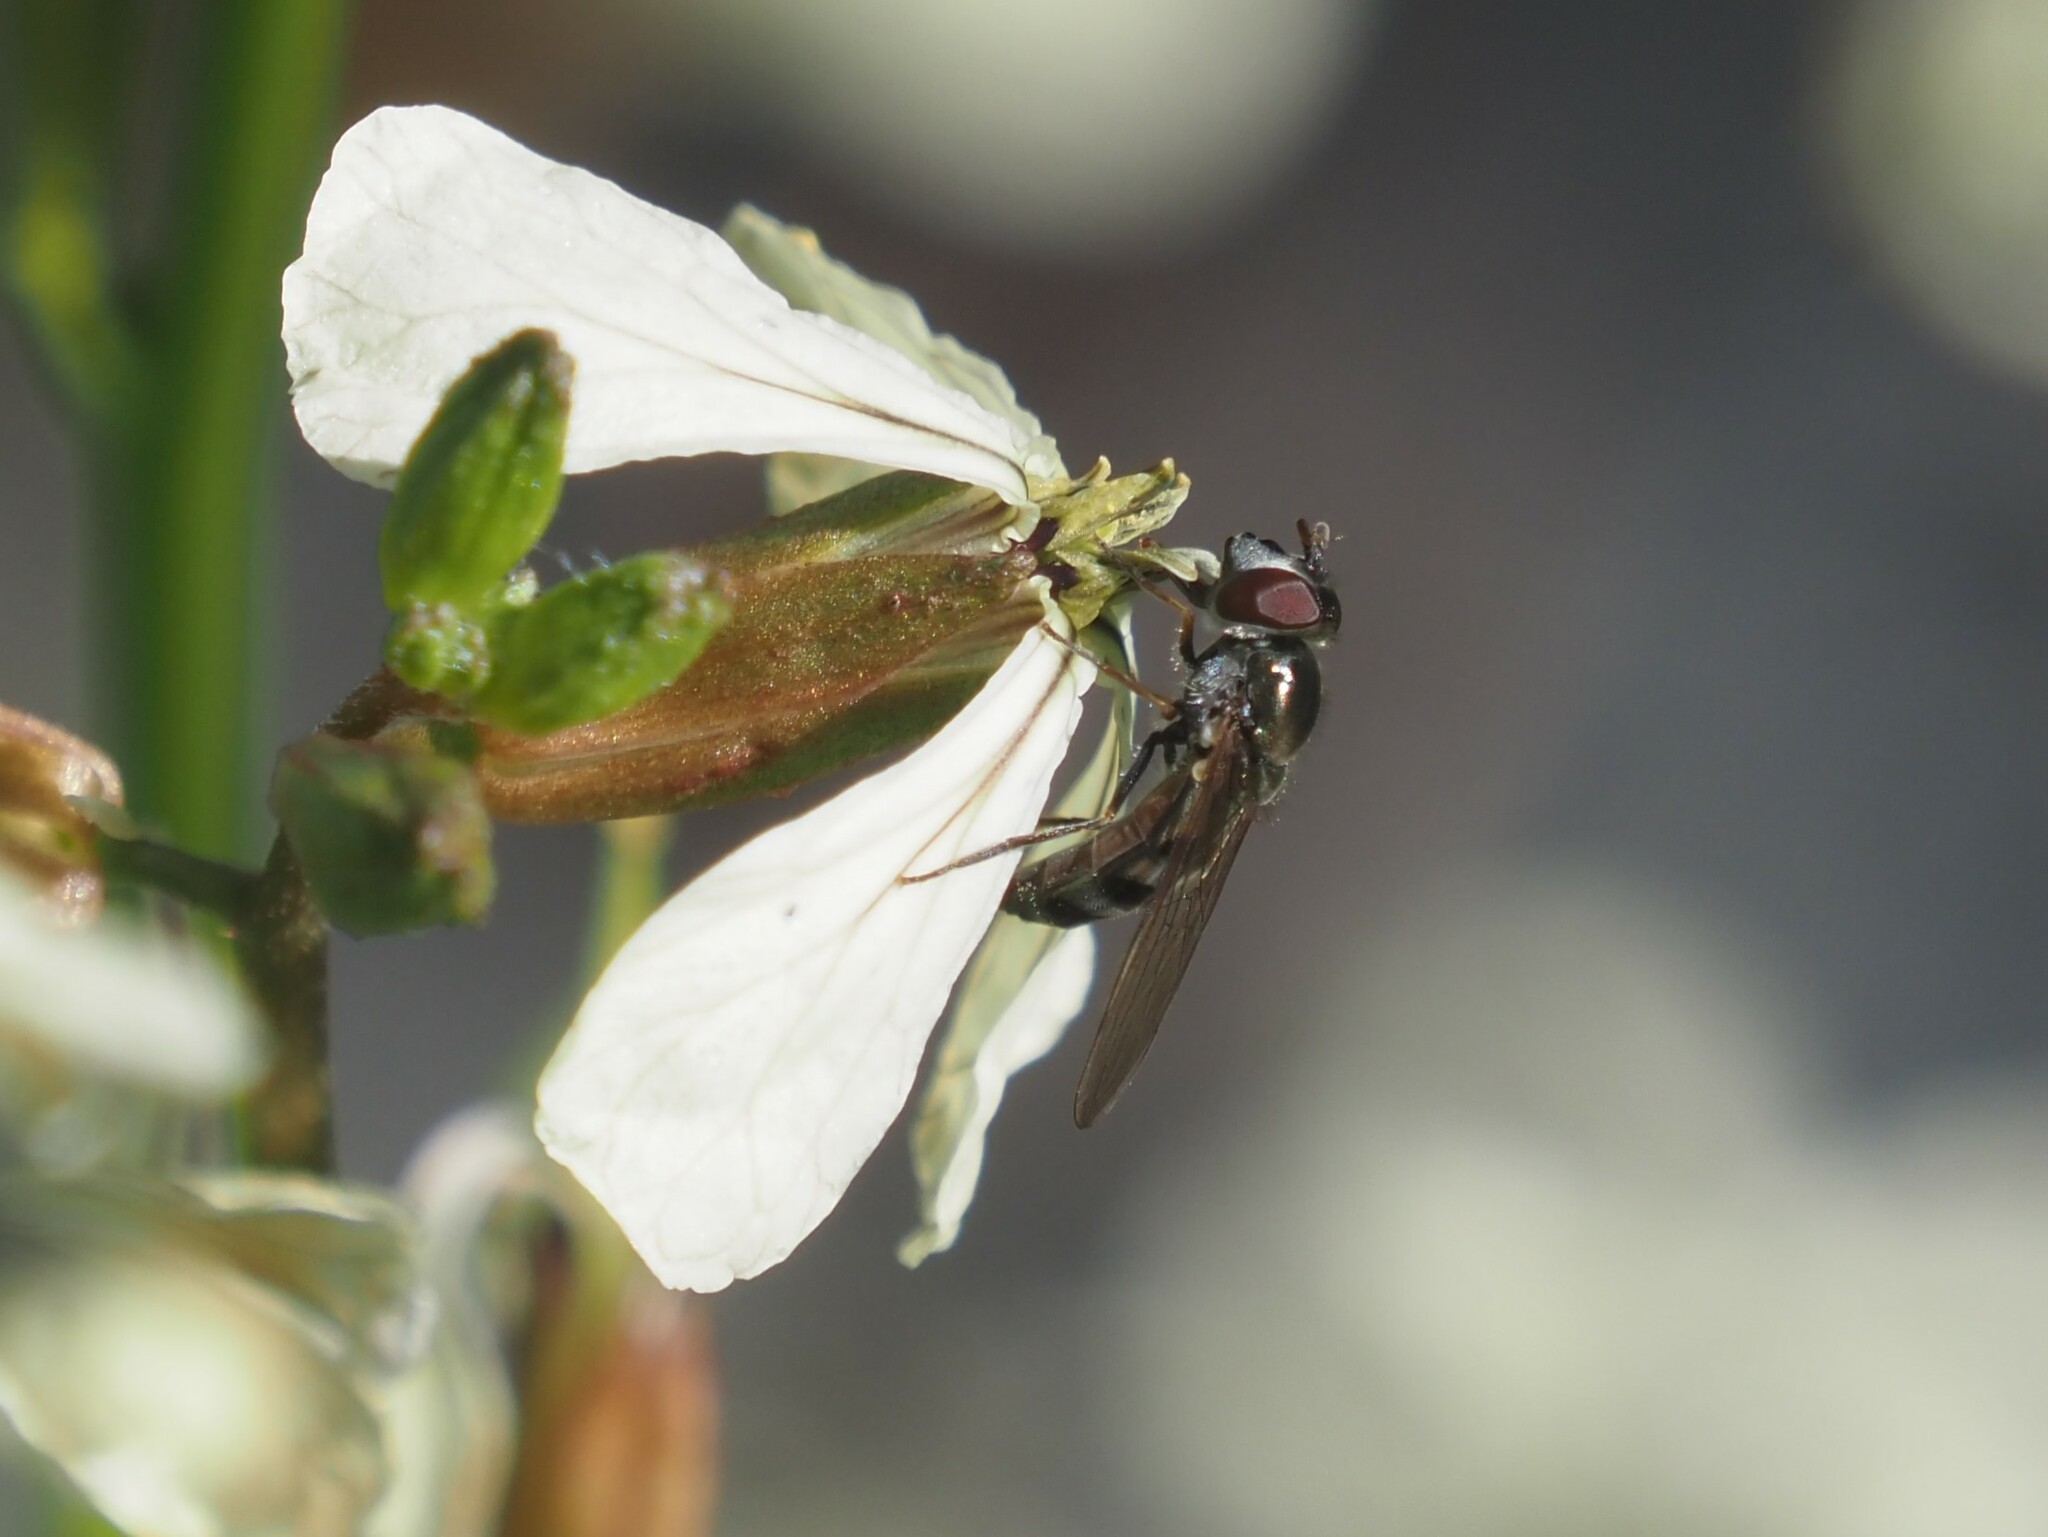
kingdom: Animalia
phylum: Arthropoda
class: Insecta
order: Diptera
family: Syrphidae
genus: Platycheirus
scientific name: Platycheirus trichopus
